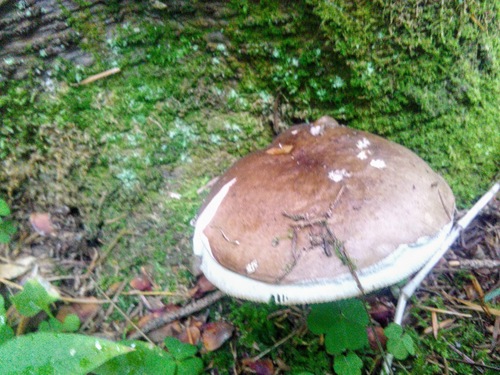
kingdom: Fungi
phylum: Basidiomycota
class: Agaricomycetes
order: Russulales
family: Russulaceae
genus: Russula
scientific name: Russula consobrina
